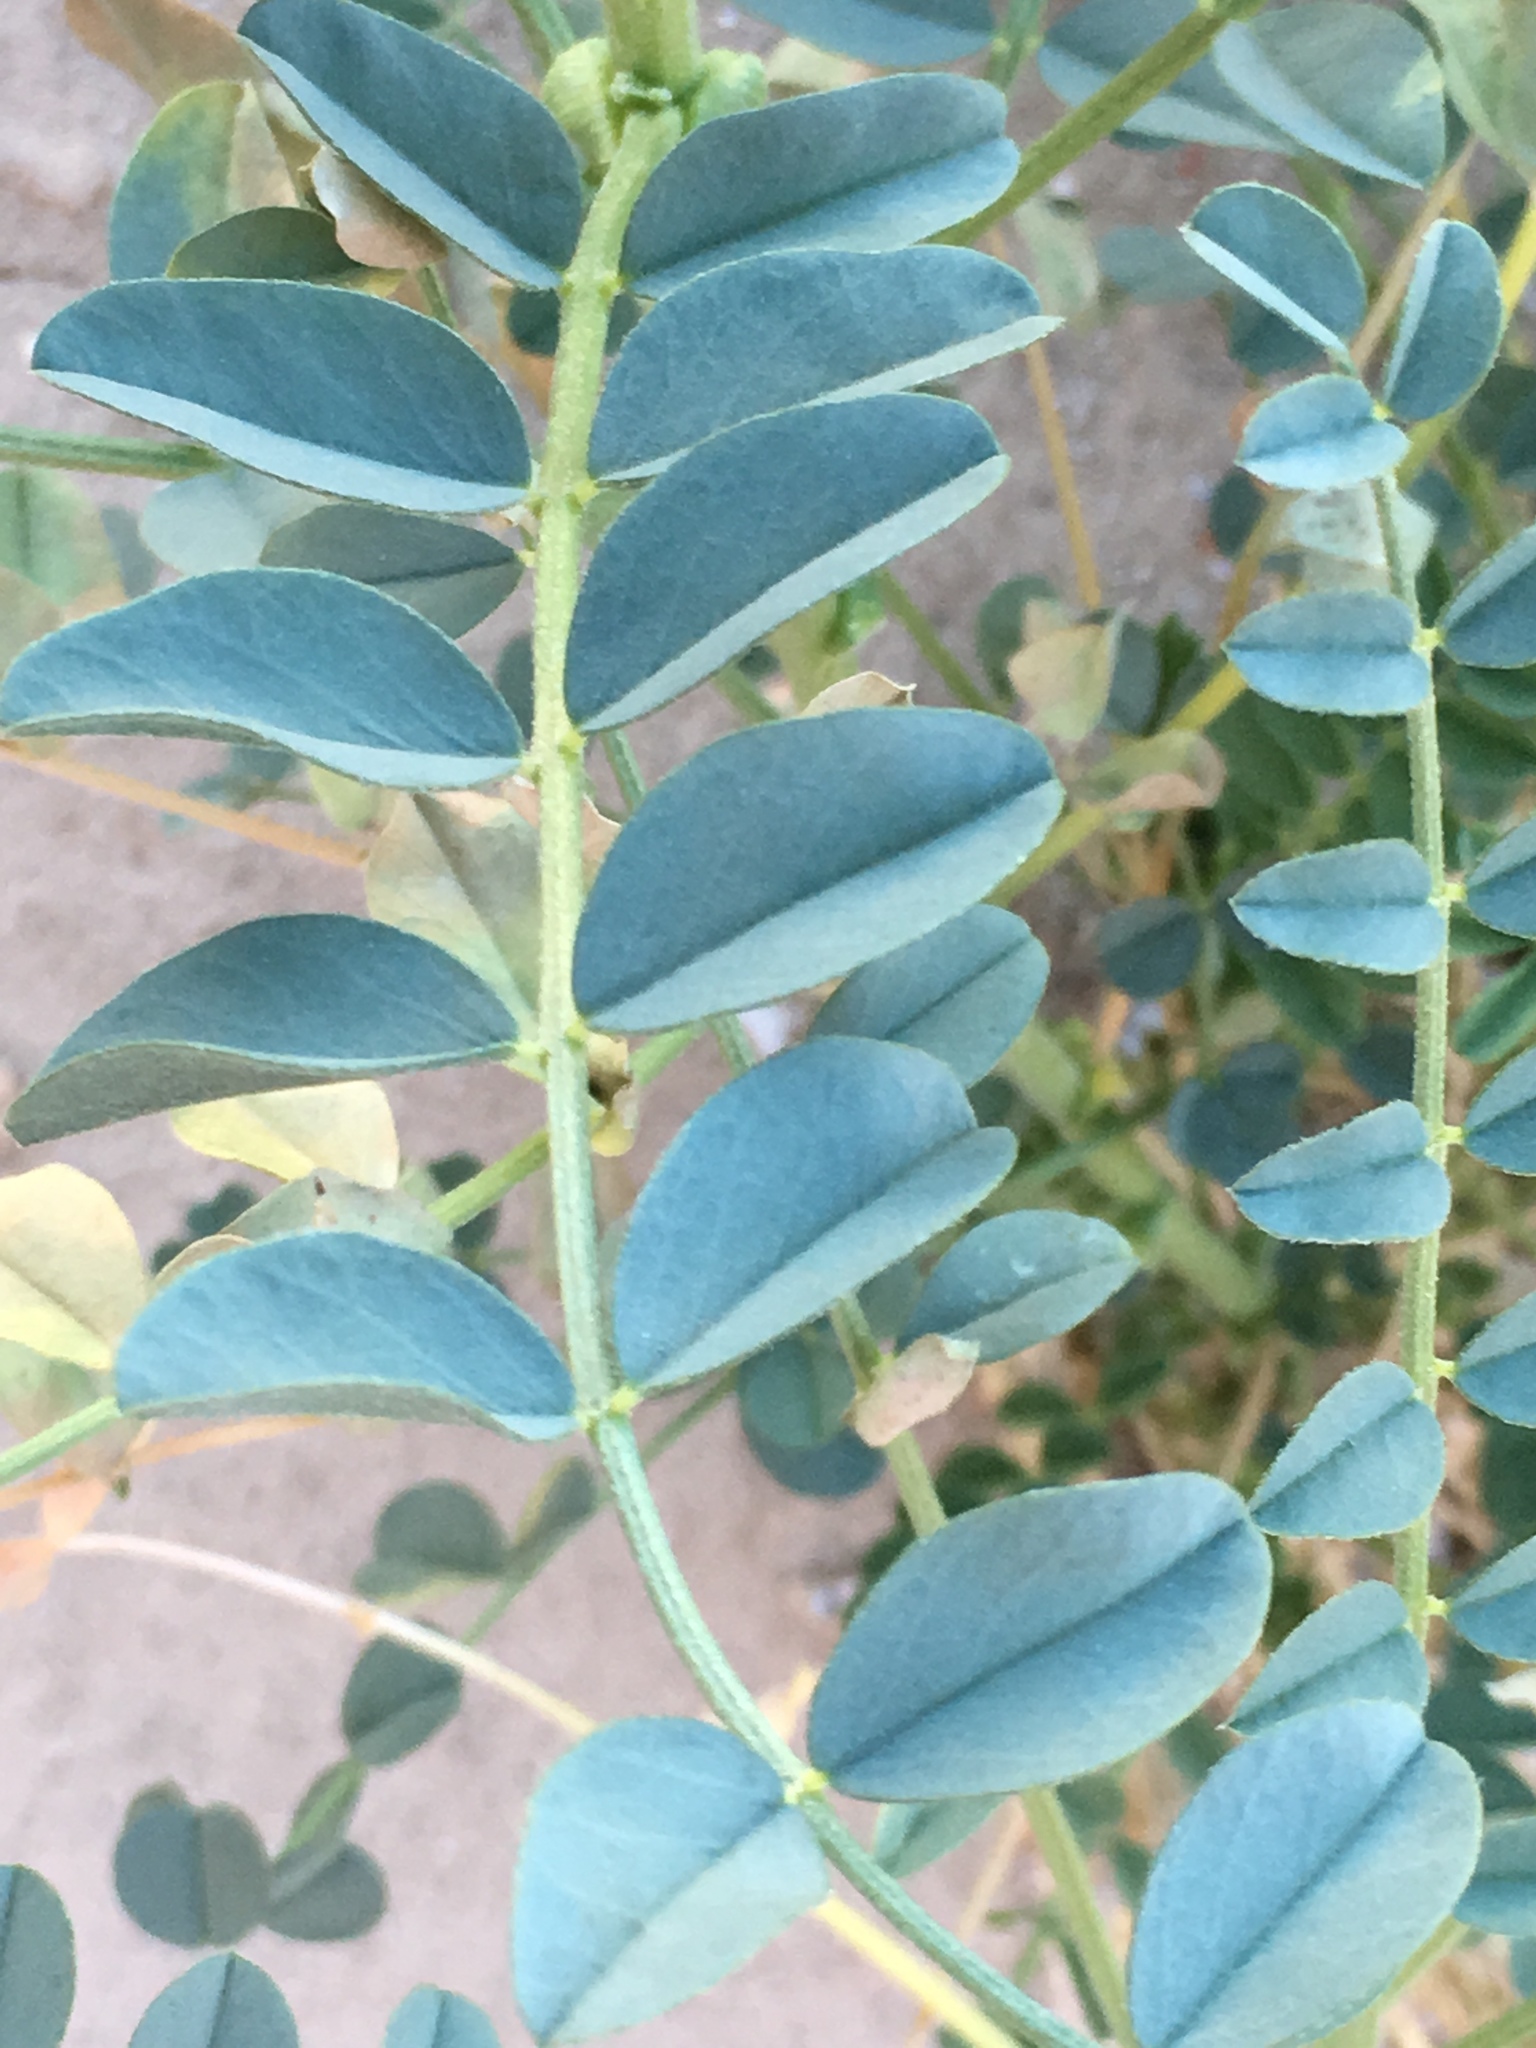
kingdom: Plantae
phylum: Tracheophyta
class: Magnoliopsida
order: Fabales
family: Fabaceae
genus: Astragalus
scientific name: Astragalus crotalariae
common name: Salton milkvetch
